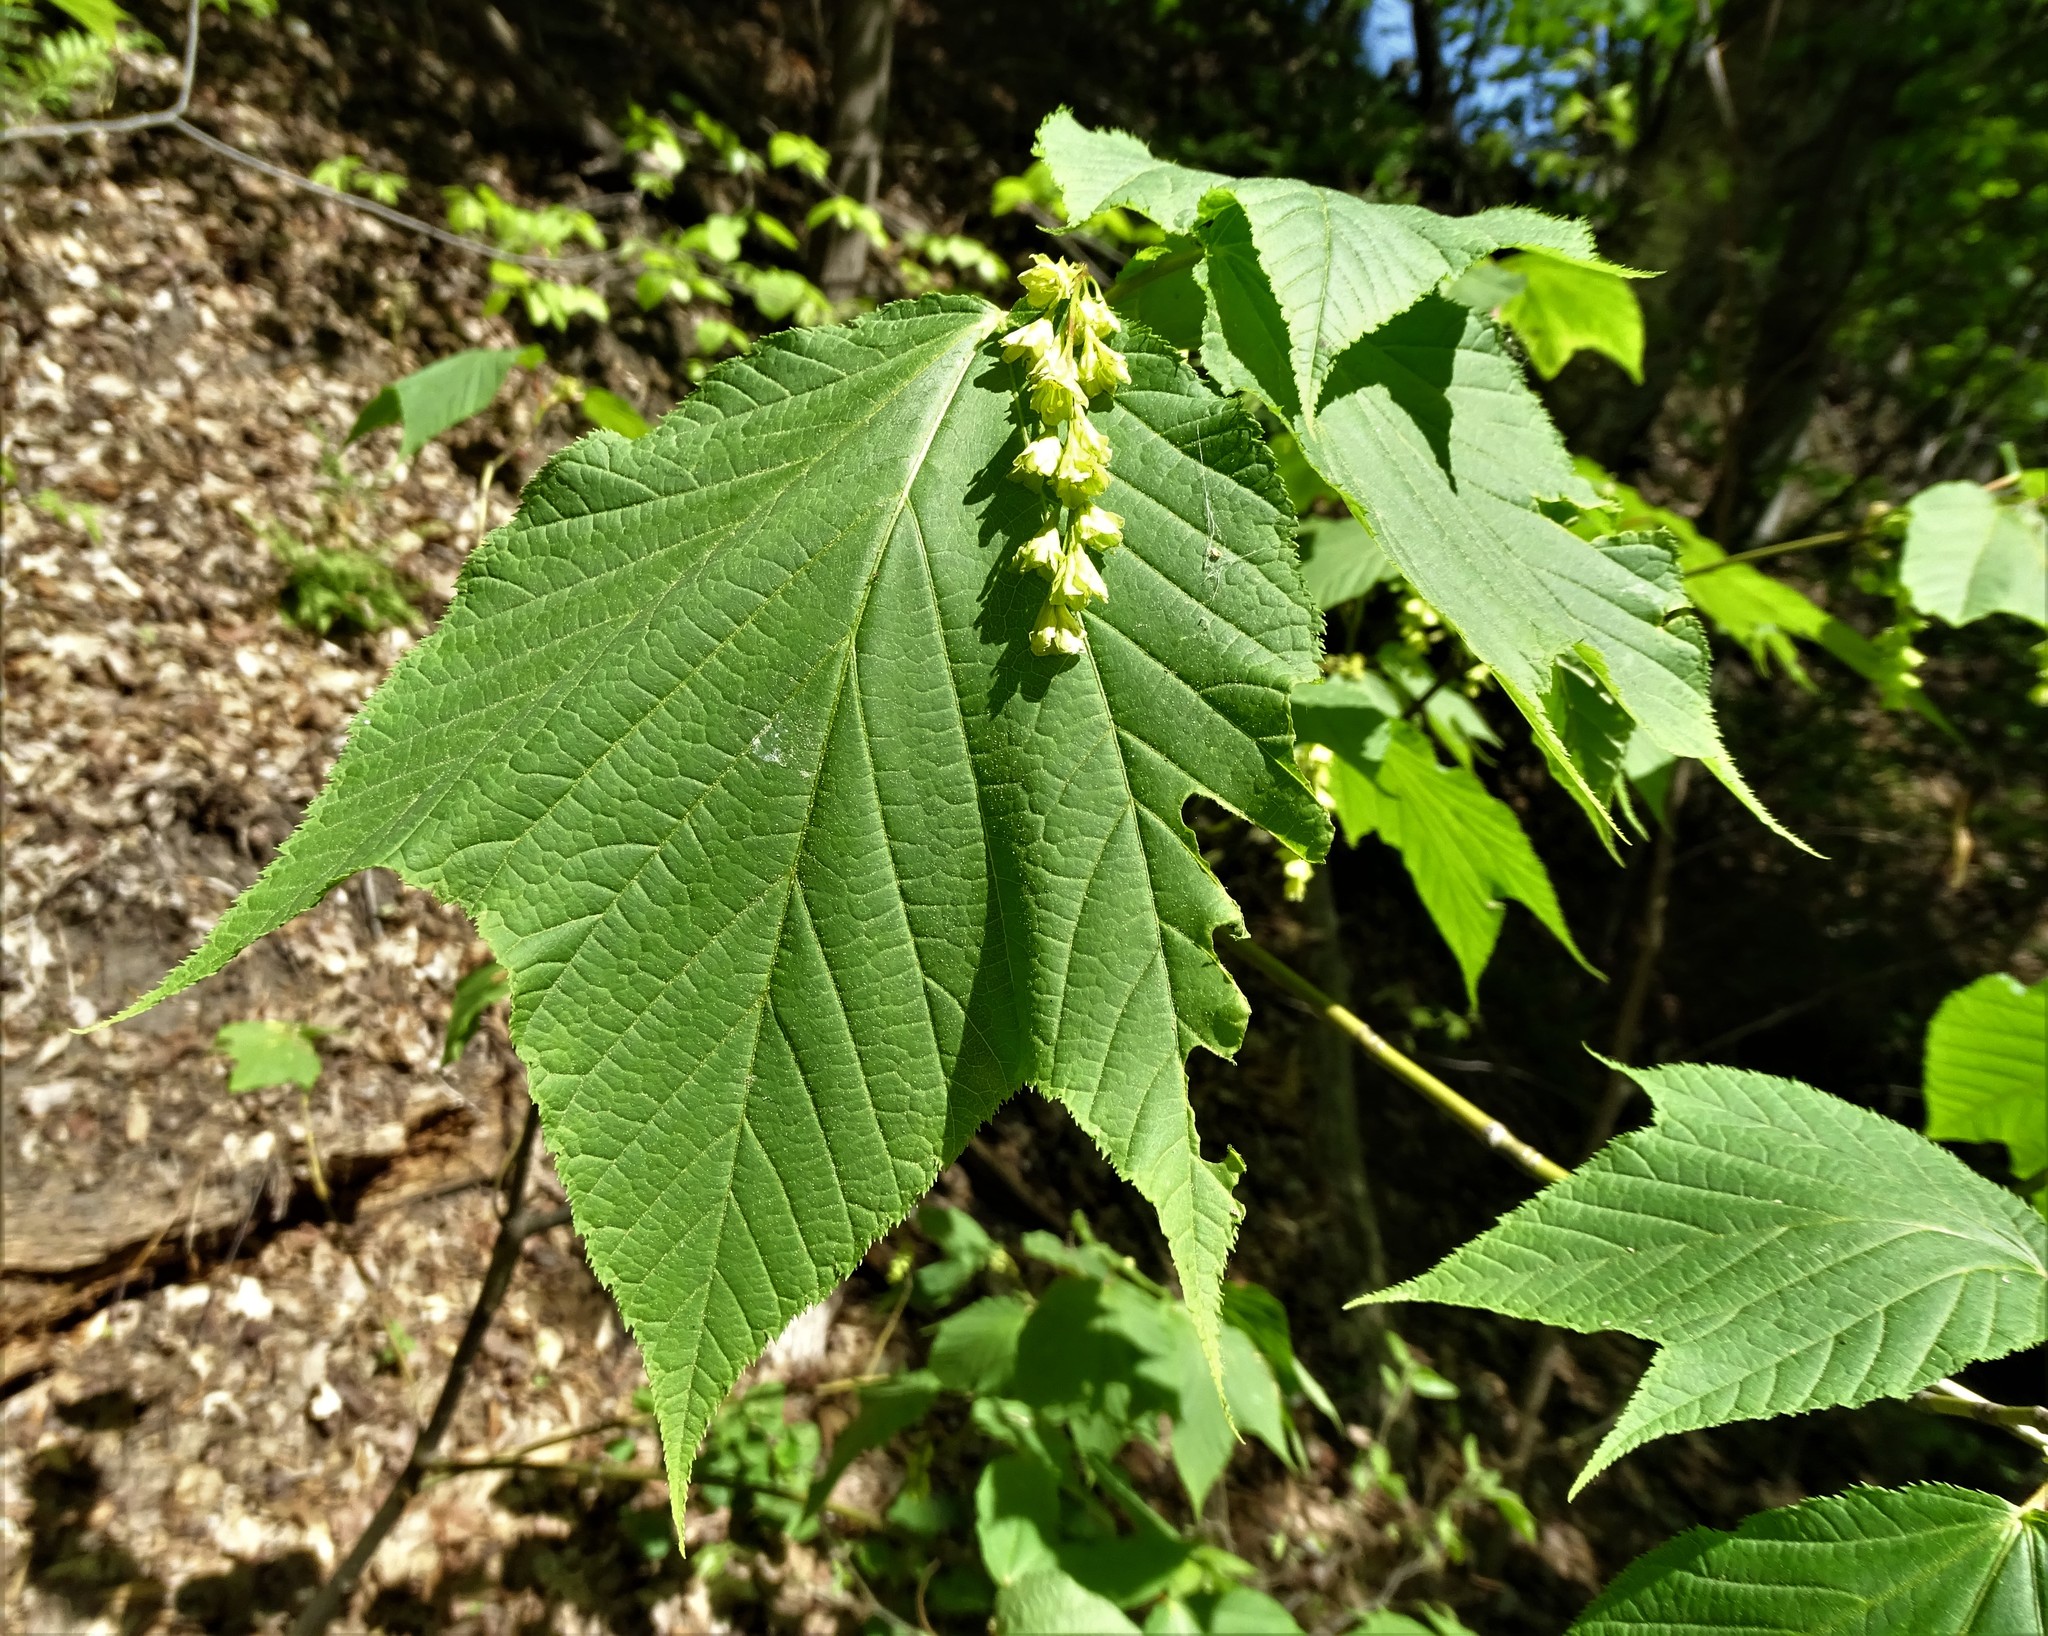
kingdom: Plantae
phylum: Tracheophyta
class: Magnoliopsida
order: Sapindales
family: Sapindaceae
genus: Acer
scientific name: Acer pensylvanicum
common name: Moosewood
